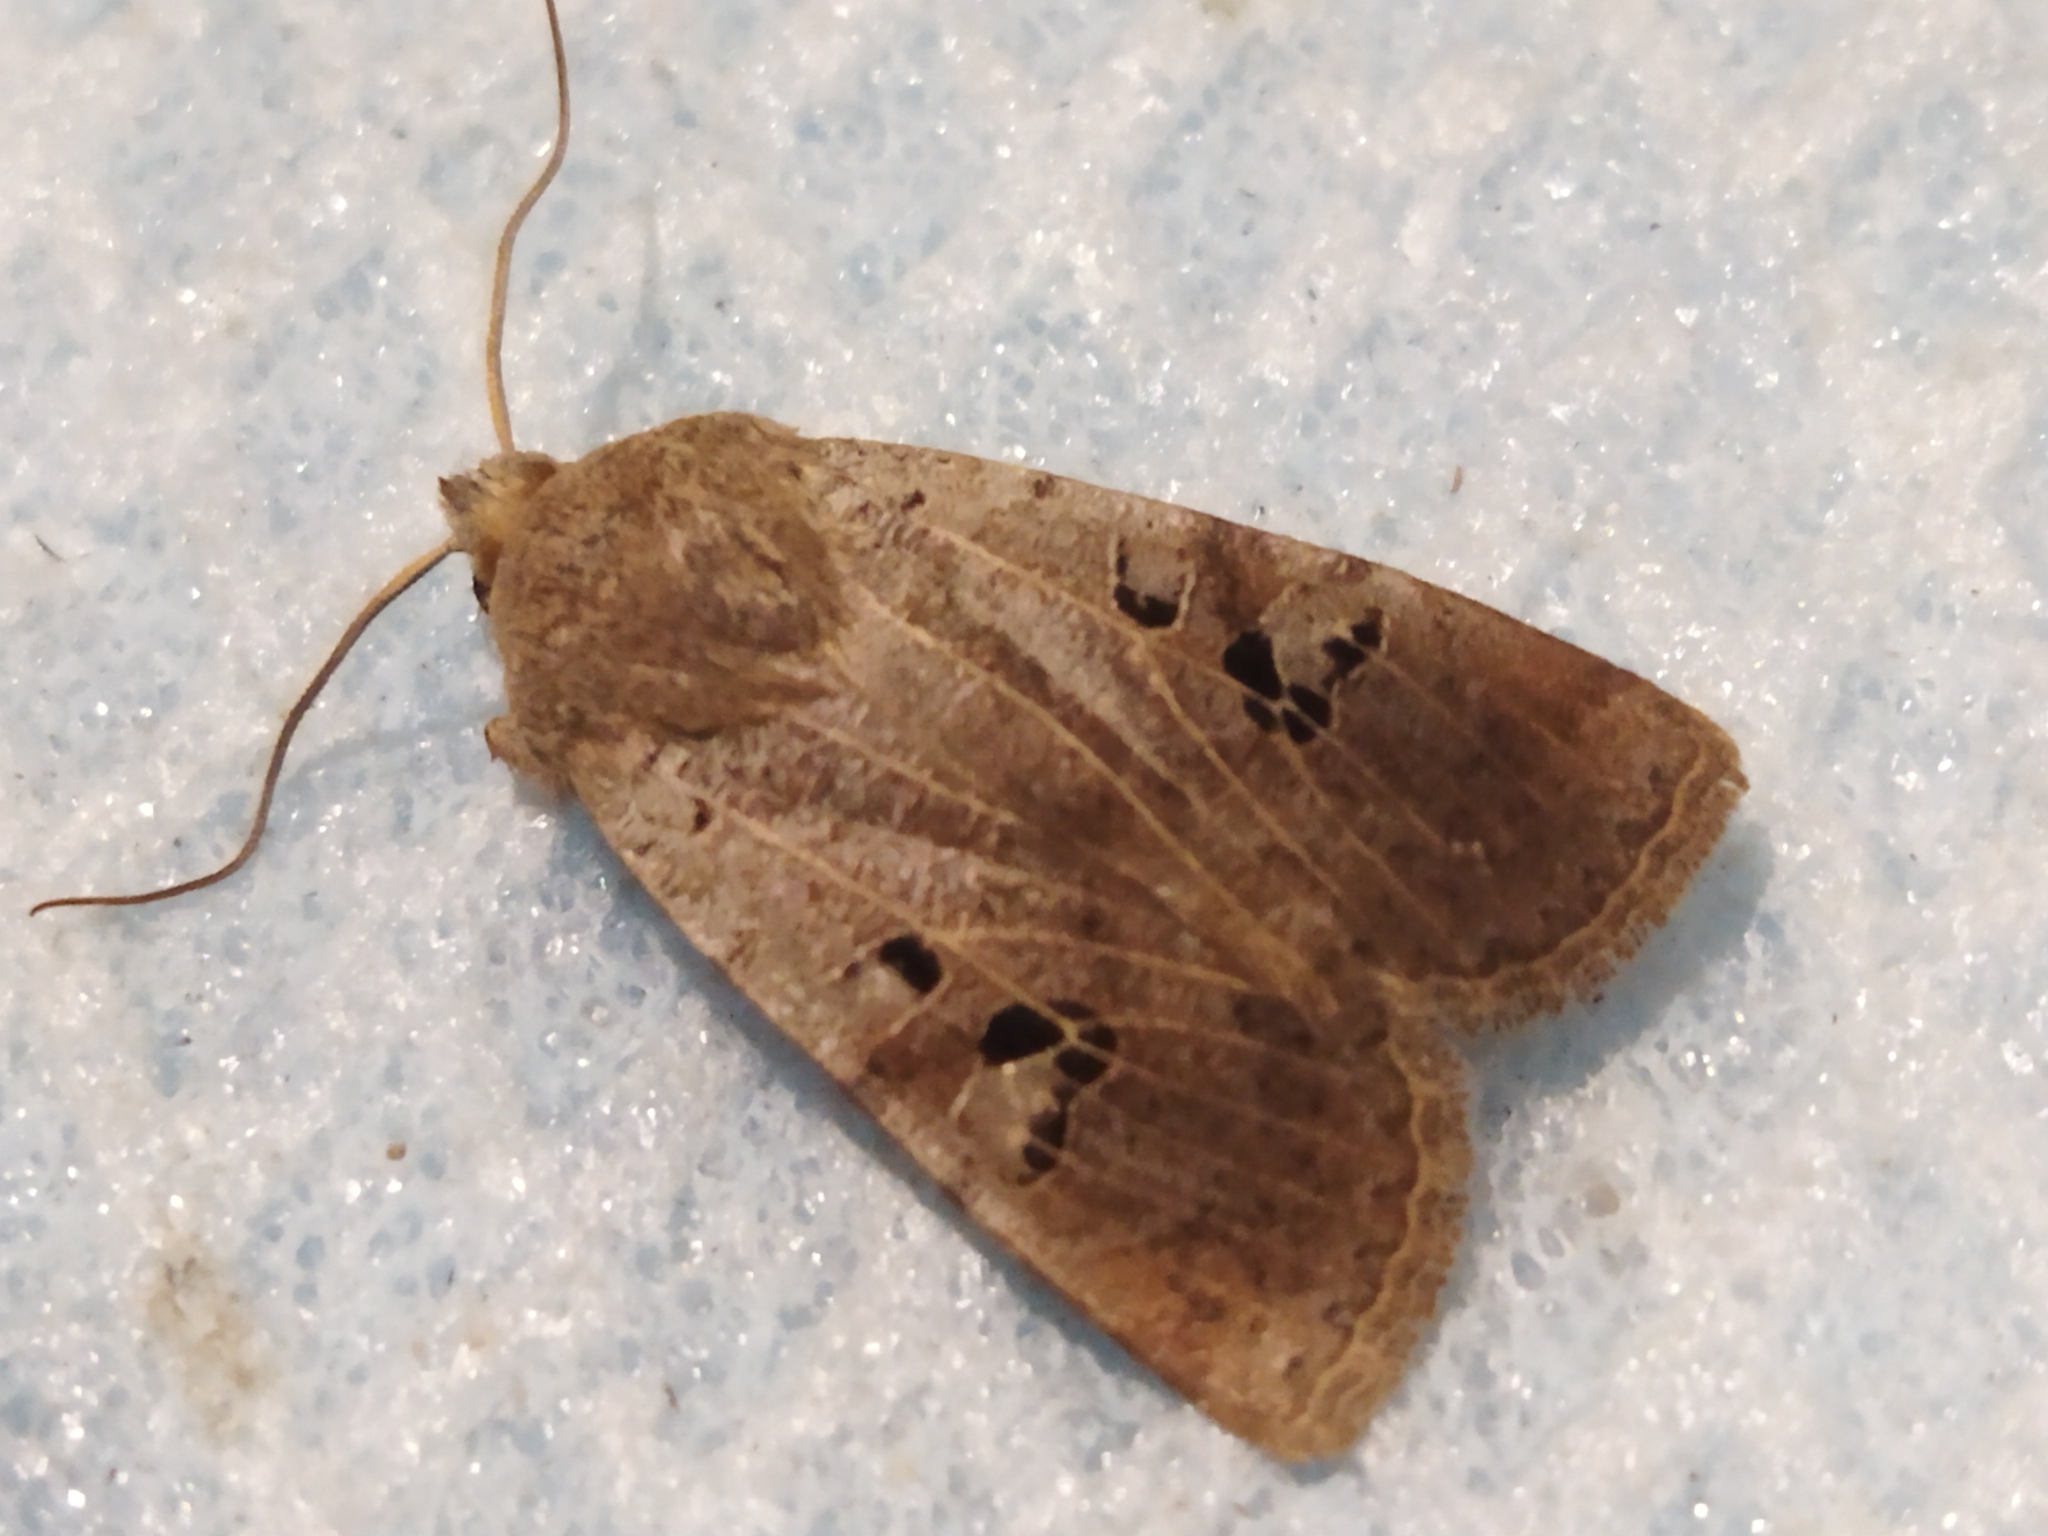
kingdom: Animalia
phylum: Arthropoda
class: Insecta
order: Lepidoptera
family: Noctuidae
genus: Conistra
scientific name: Conistra rubiginosa
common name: Black-spotted chestnut
